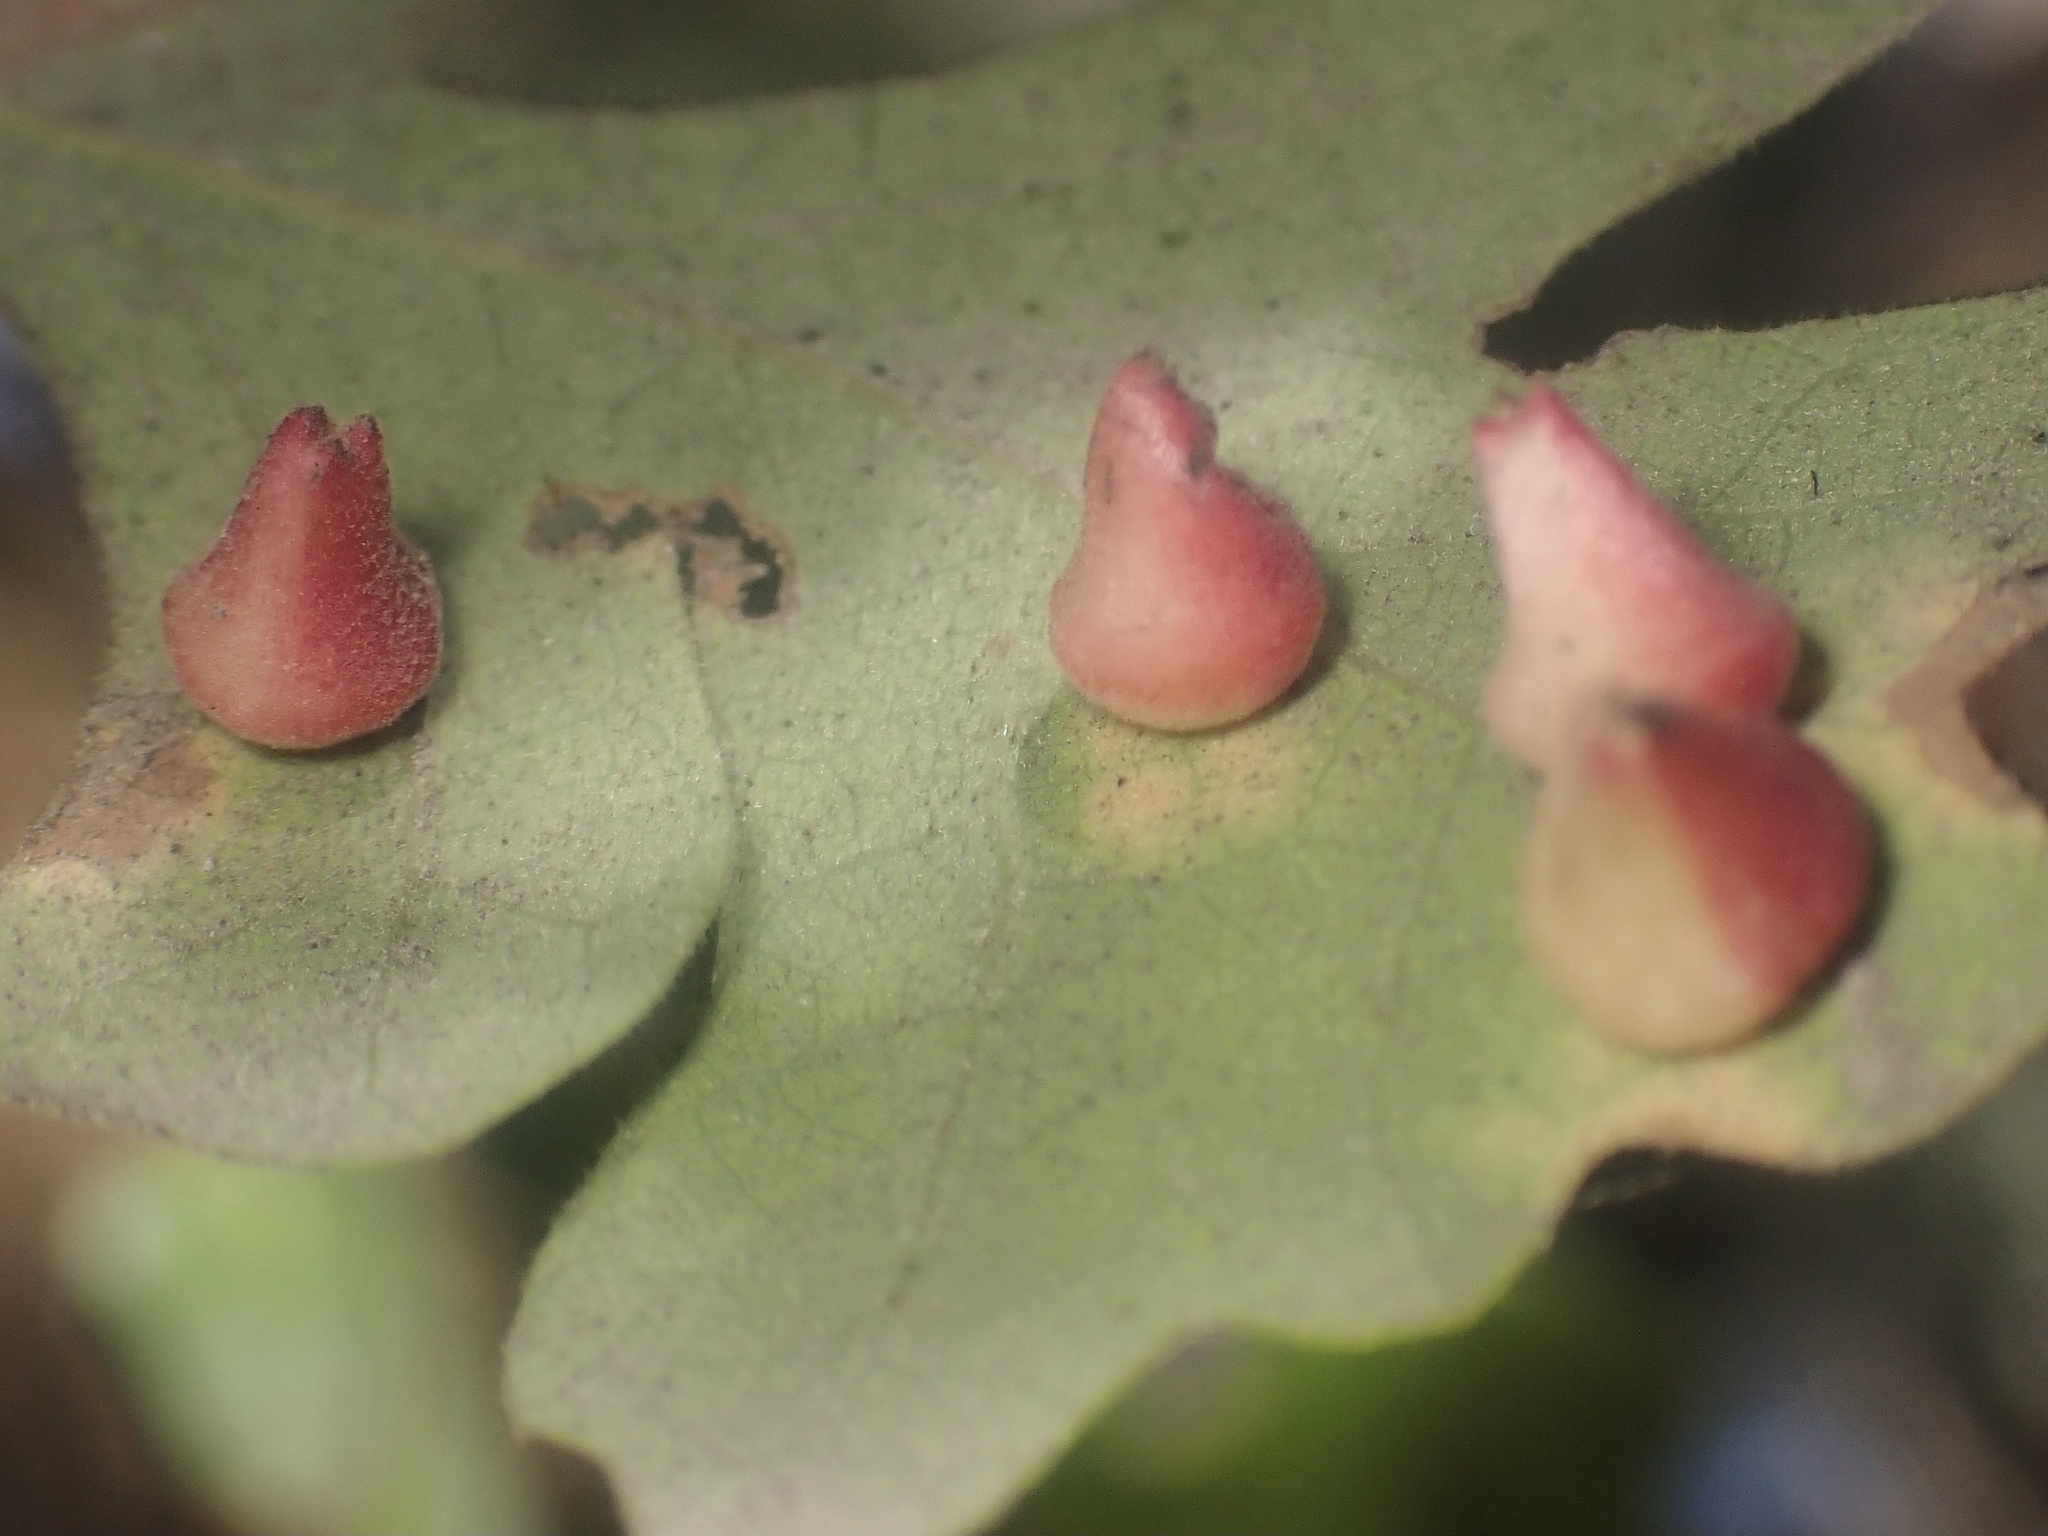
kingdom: Animalia
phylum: Arthropoda
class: Insecta
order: Hymenoptera
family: Cynipidae
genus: Andricus
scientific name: Andricus
